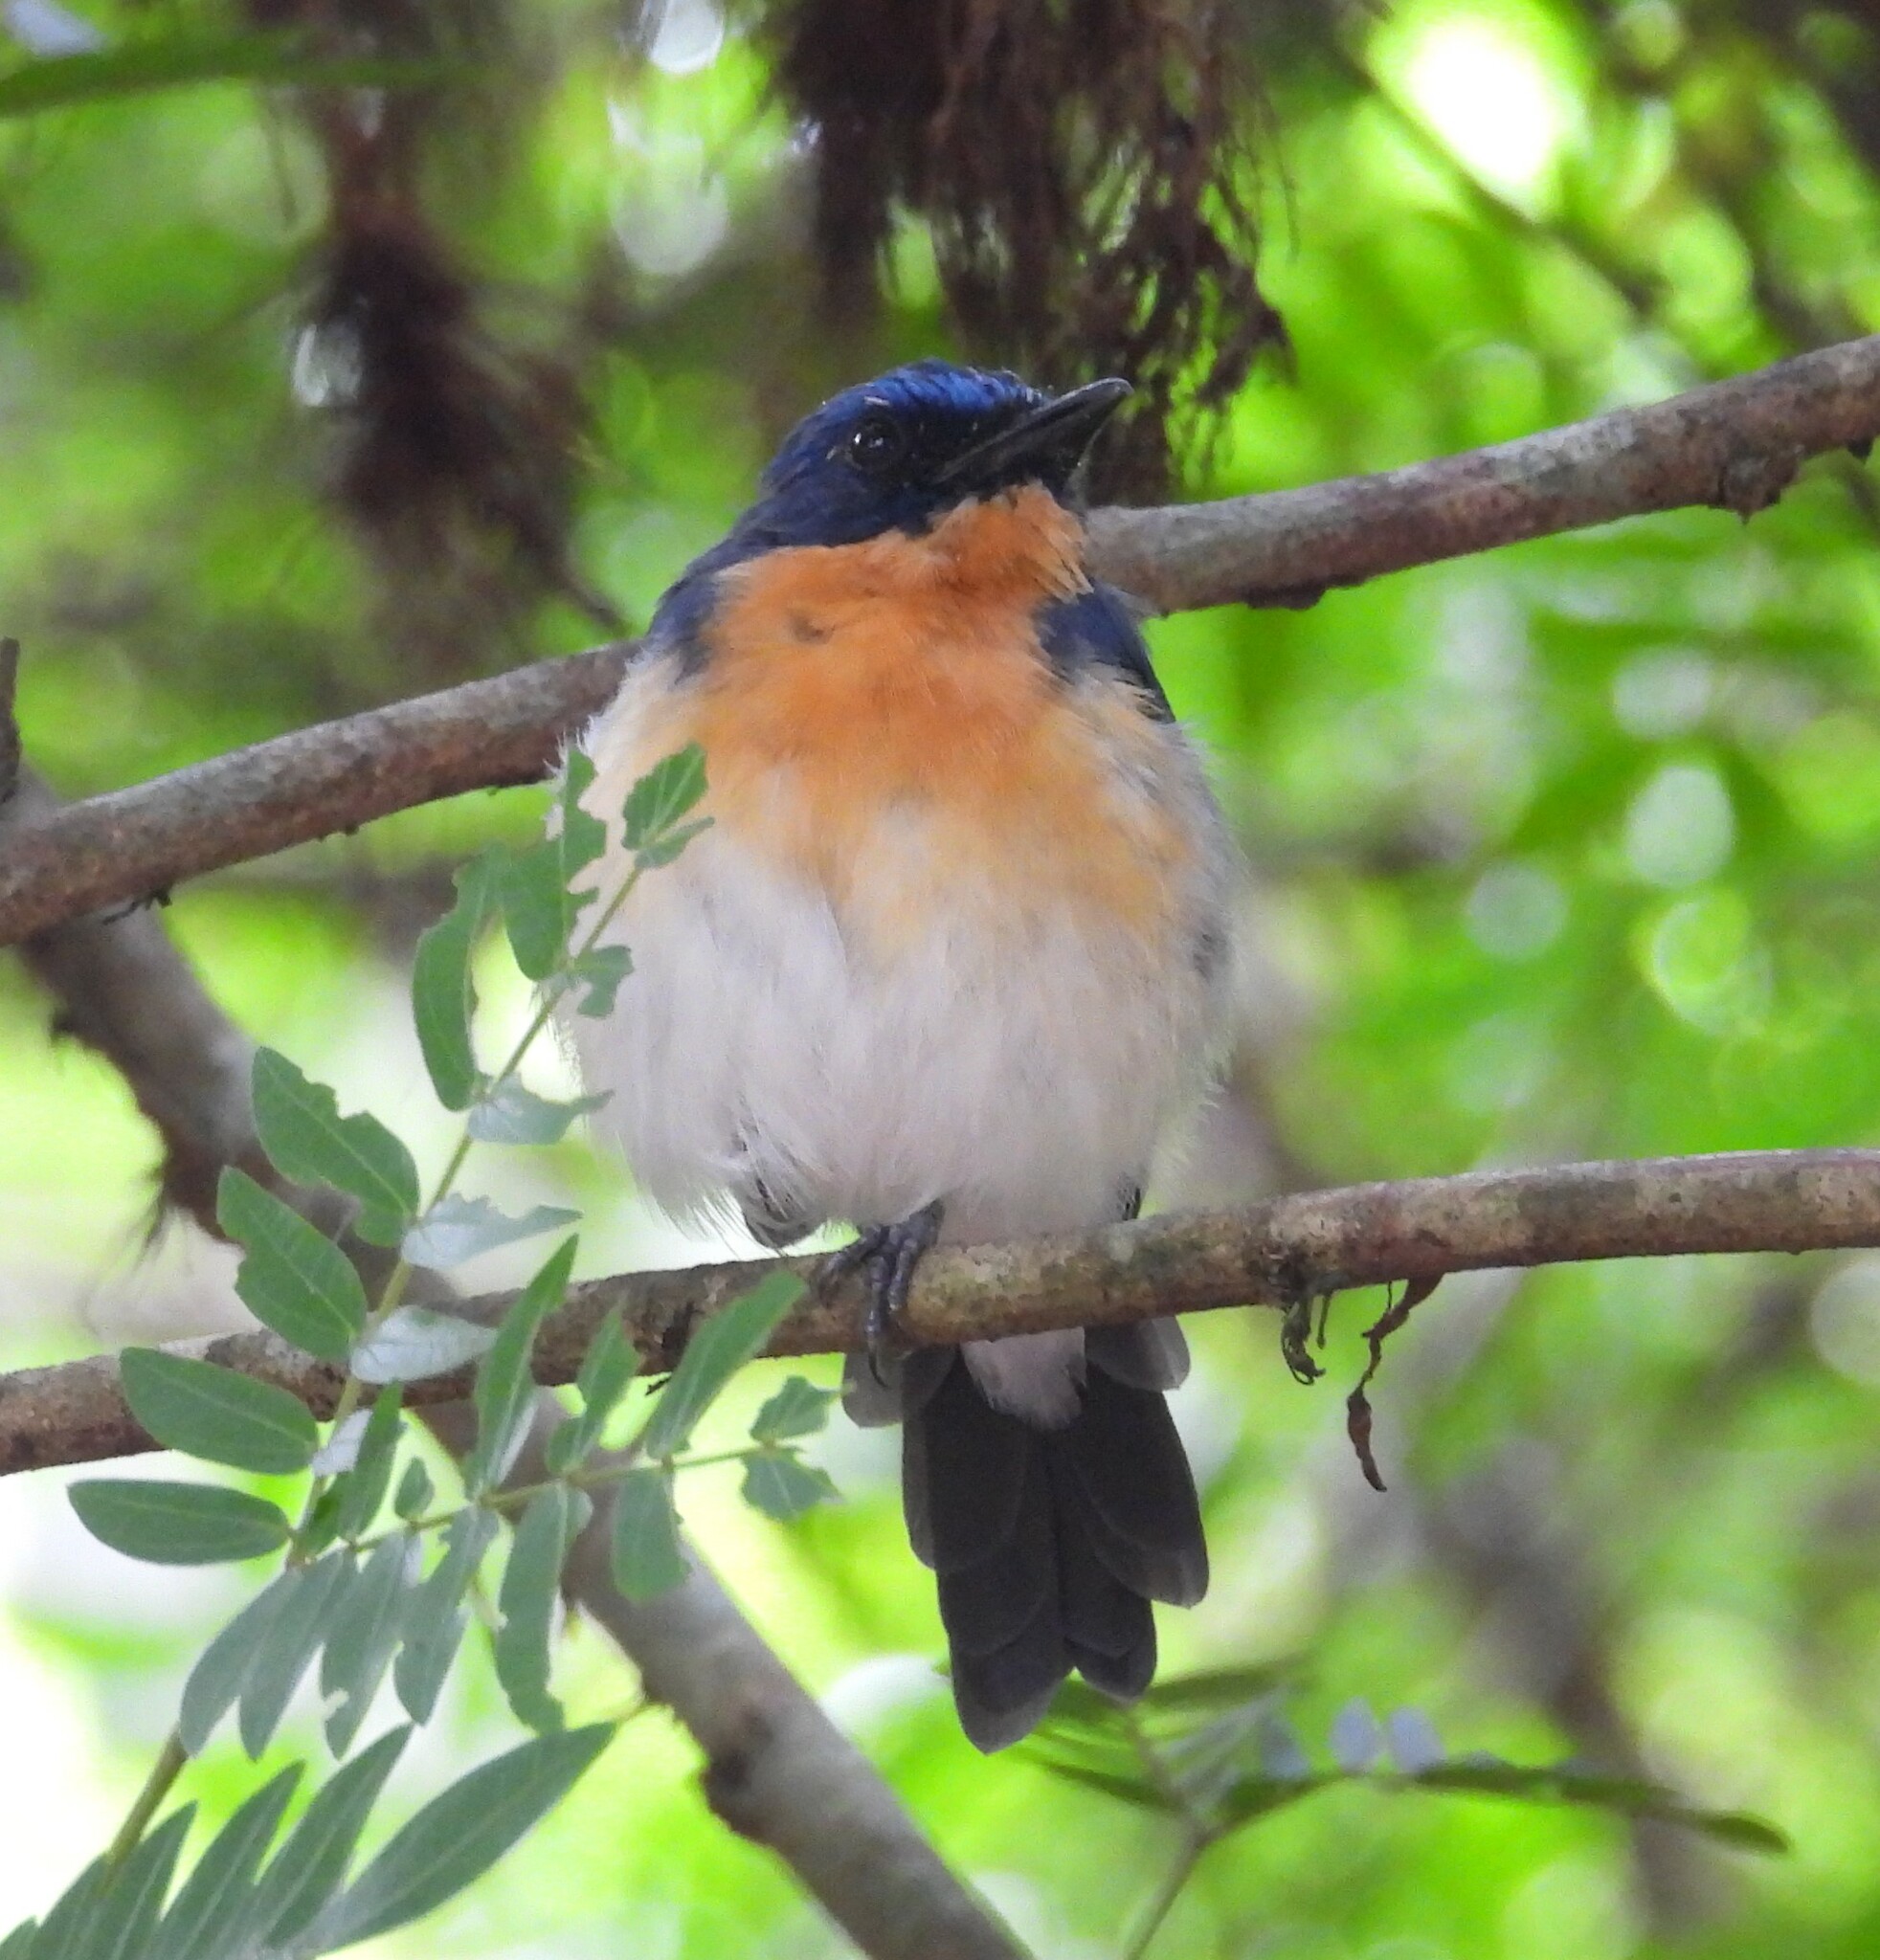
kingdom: Animalia
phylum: Chordata
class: Aves
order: Passeriformes
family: Muscicapidae
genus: Cyornis
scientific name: Cyornis tickelliae
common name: Tickell's blue flycatcher
